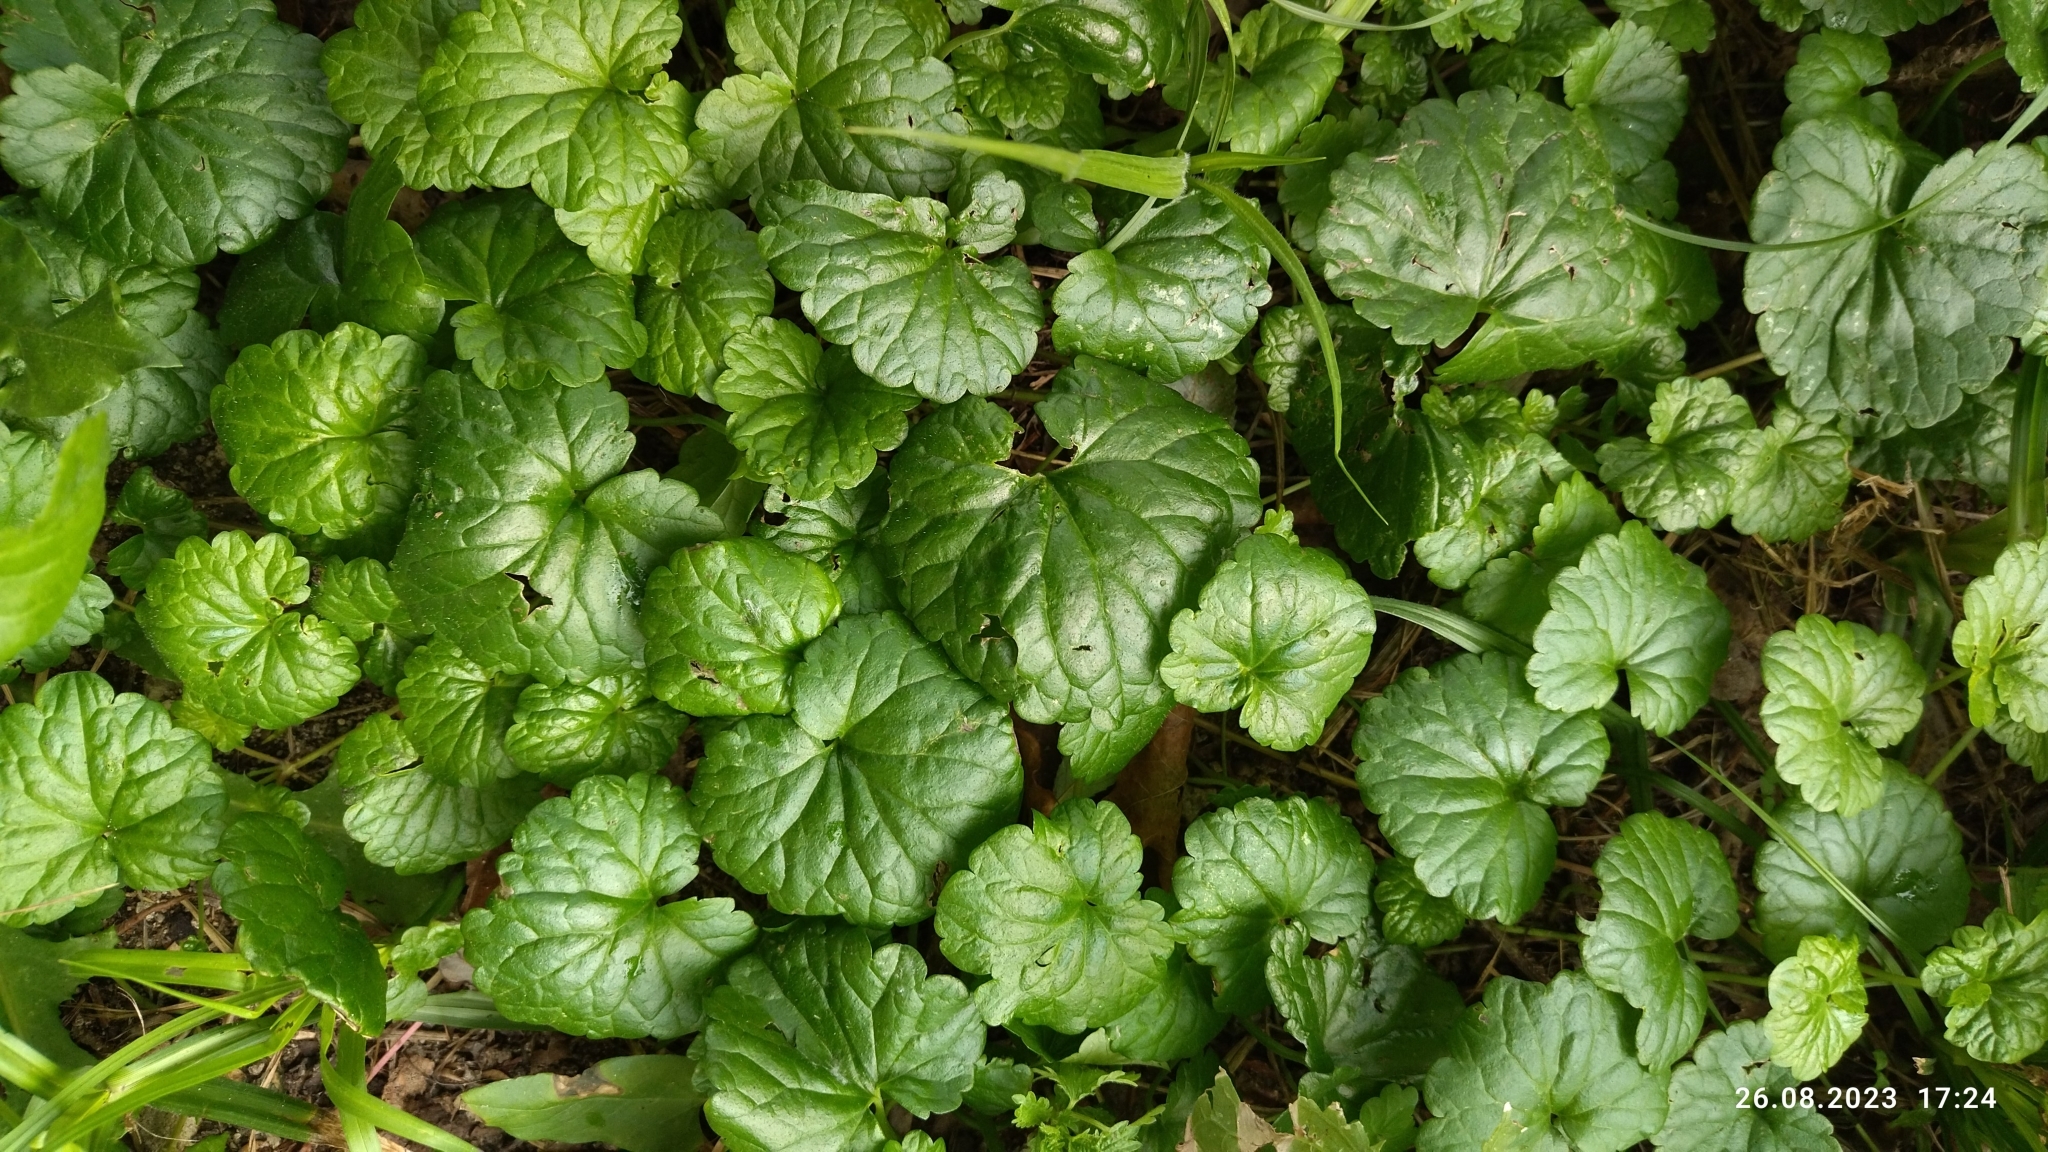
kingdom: Plantae
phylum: Tracheophyta
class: Magnoliopsida
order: Lamiales
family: Lamiaceae
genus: Glechoma
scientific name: Glechoma hederacea
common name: Ground ivy
